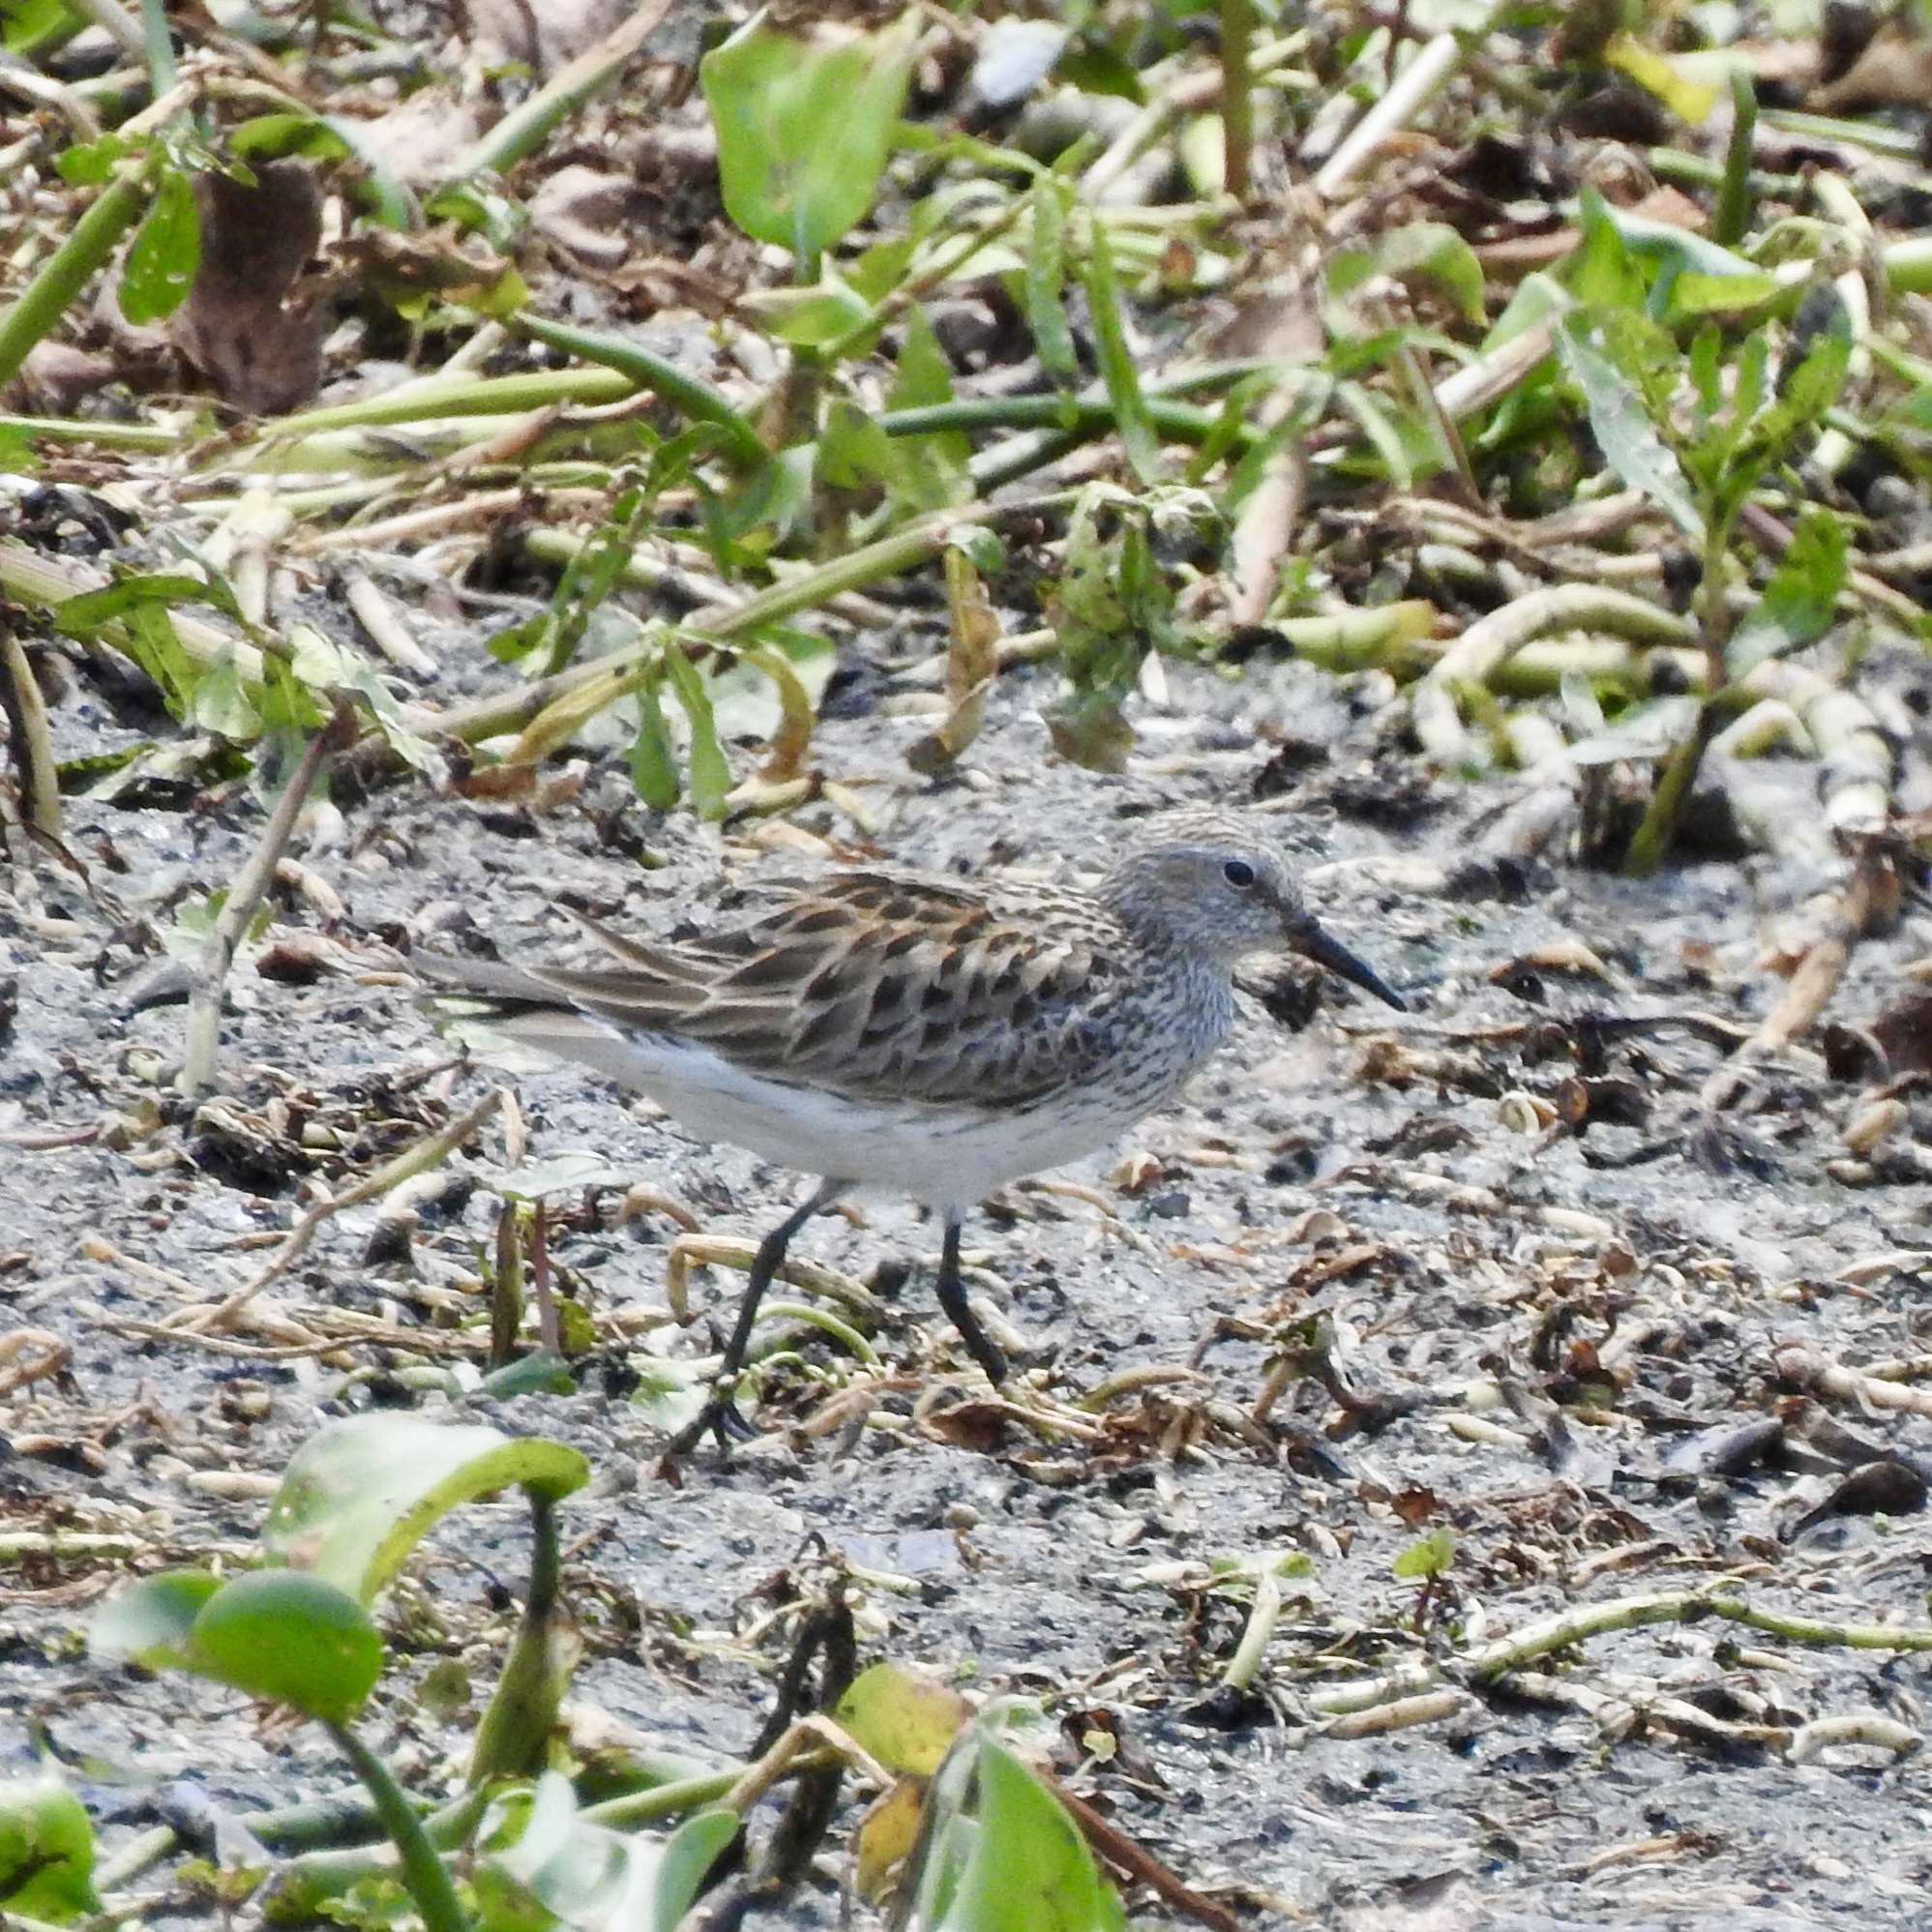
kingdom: Animalia
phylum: Chordata
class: Aves
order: Charadriiformes
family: Scolopacidae
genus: Calidris
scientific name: Calidris fuscicollis
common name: White-rumped sandpiper
